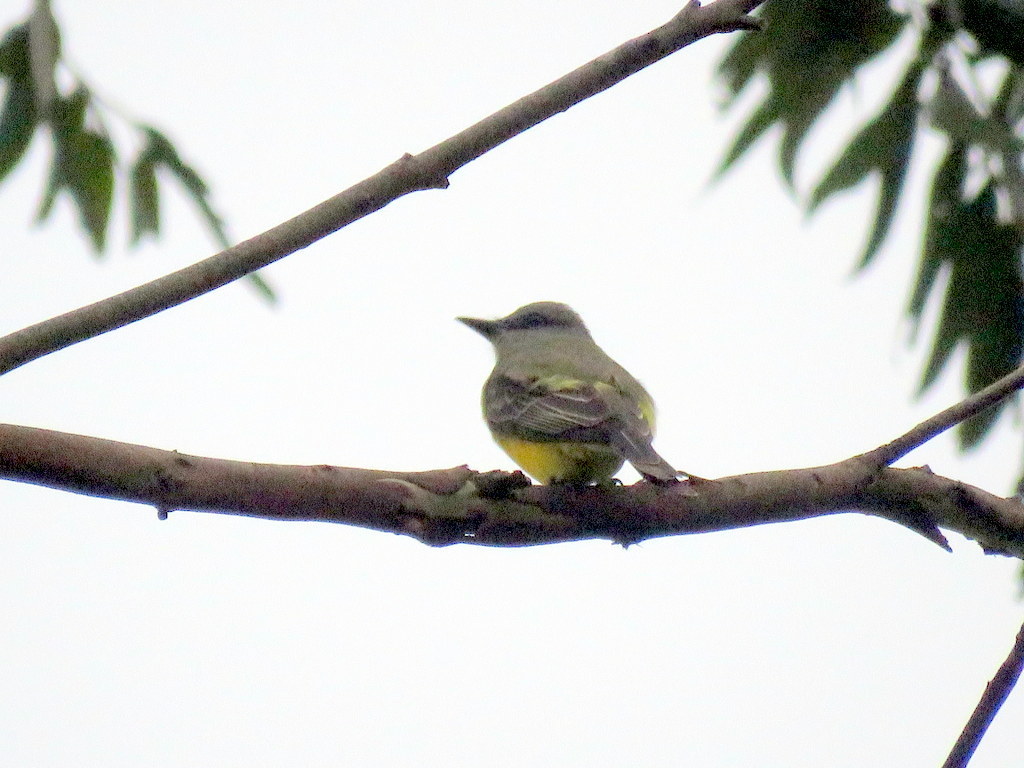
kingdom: Animalia
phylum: Chordata
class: Aves
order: Passeriformes
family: Tyrannidae
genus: Tyrannus
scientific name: Tyrannus melancholicus
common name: Tropical kingbird
